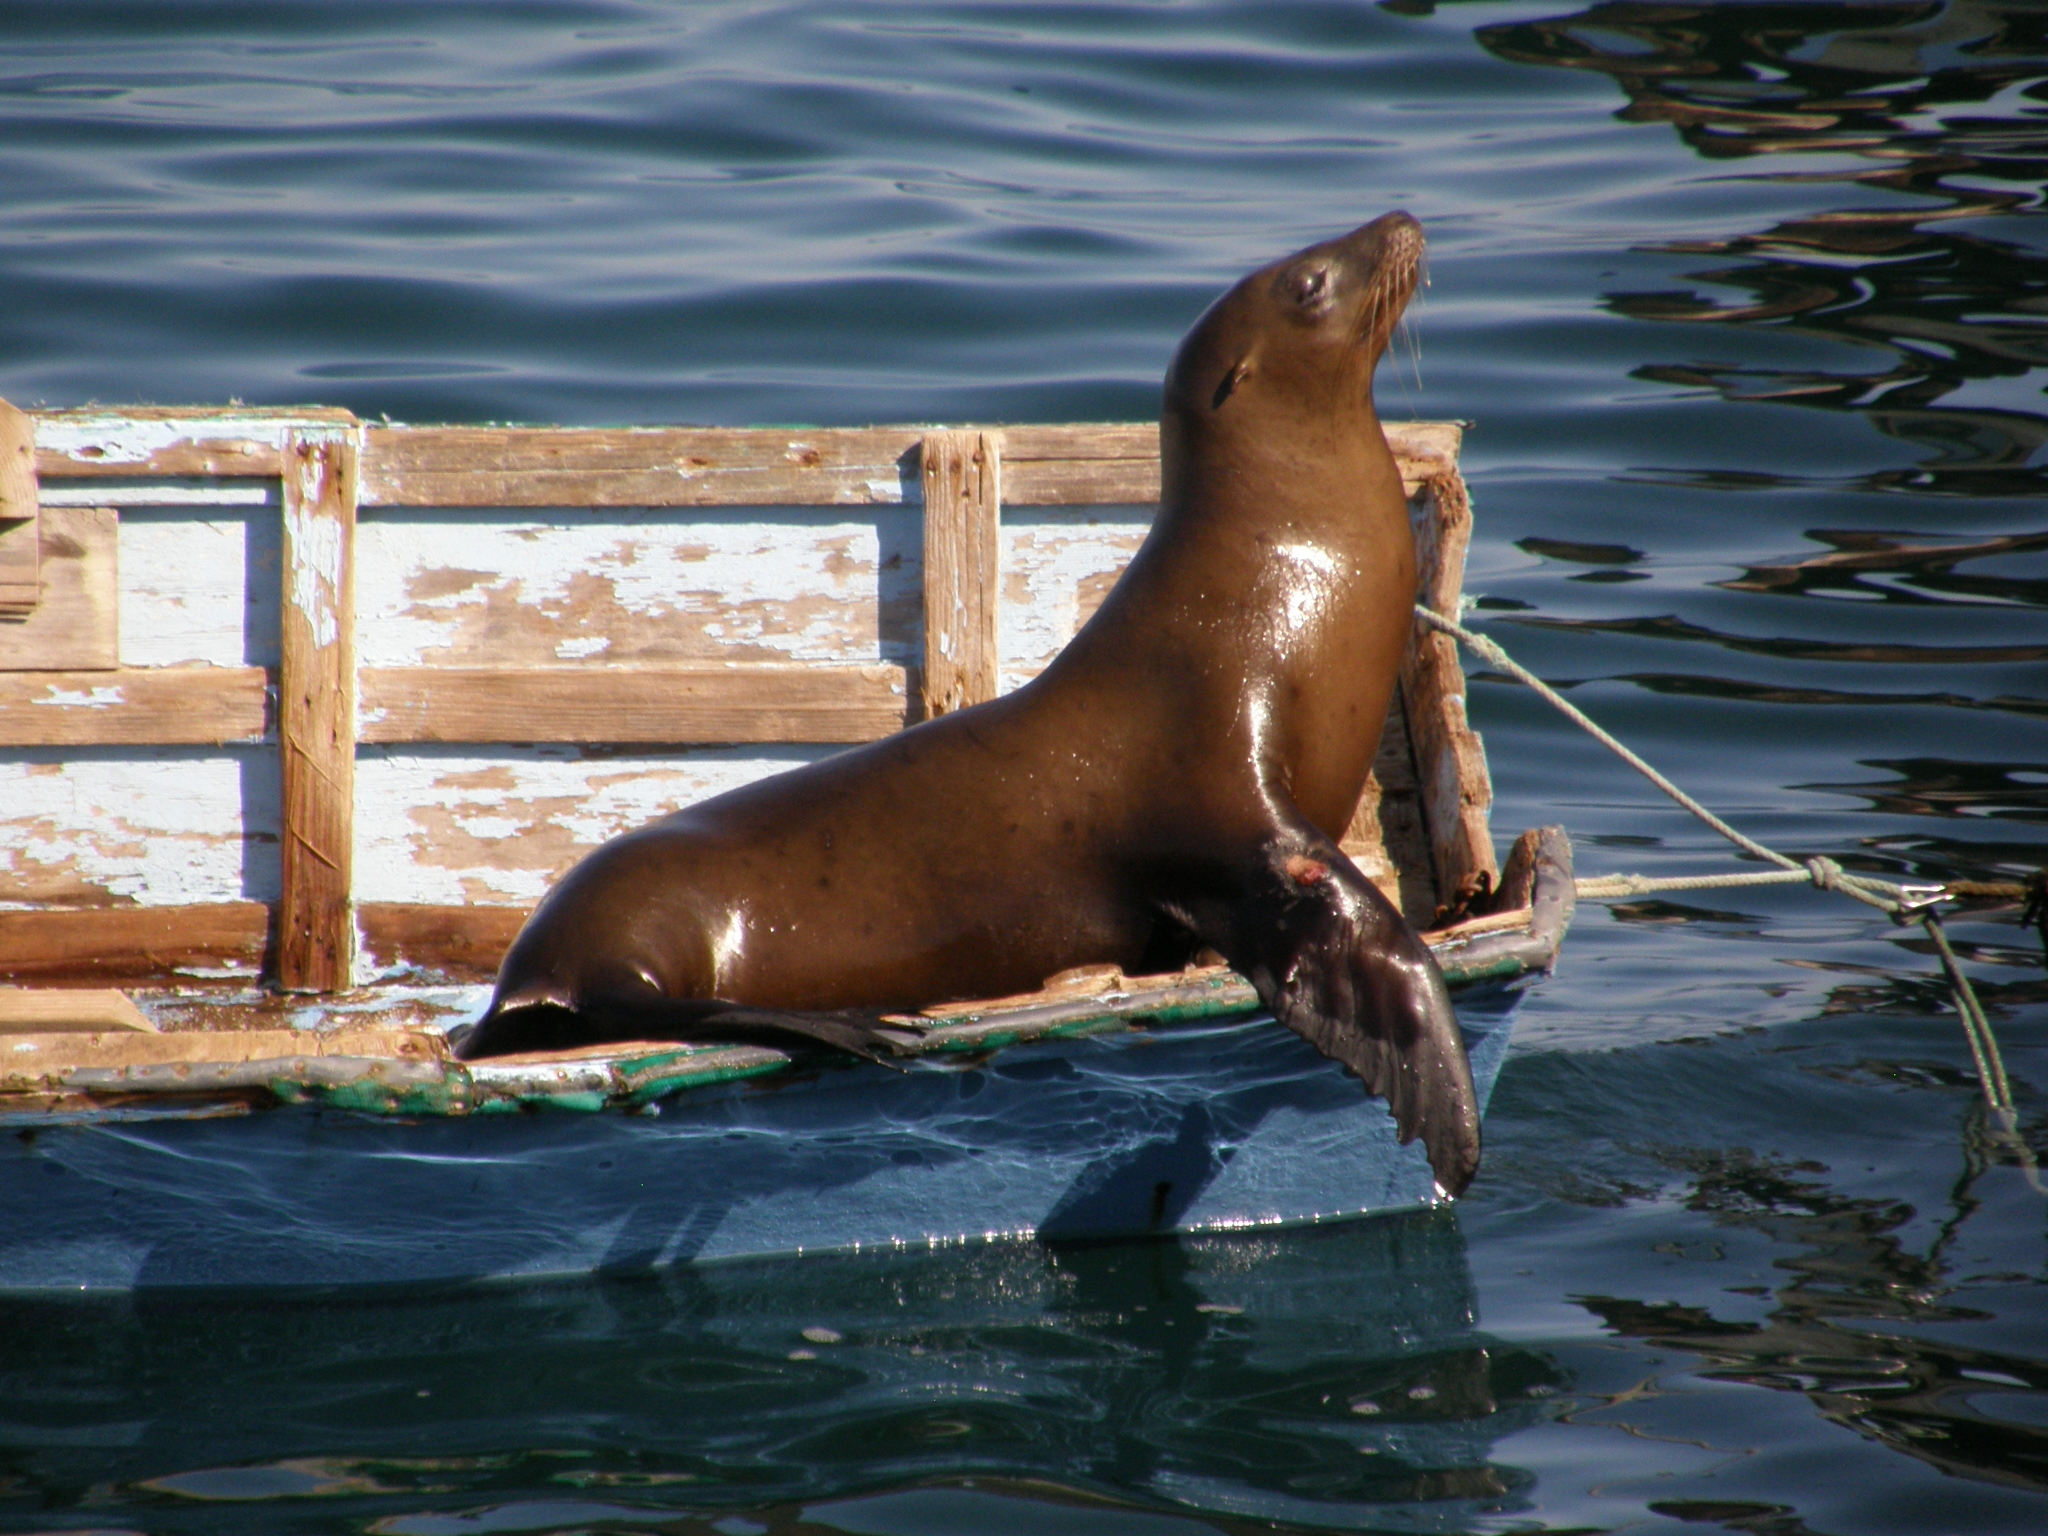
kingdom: Animalia
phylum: Chordata
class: Mammalia
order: Carnivora
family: Otariidae
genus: Zalophus
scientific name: Zalophus californianus
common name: California sea lion
